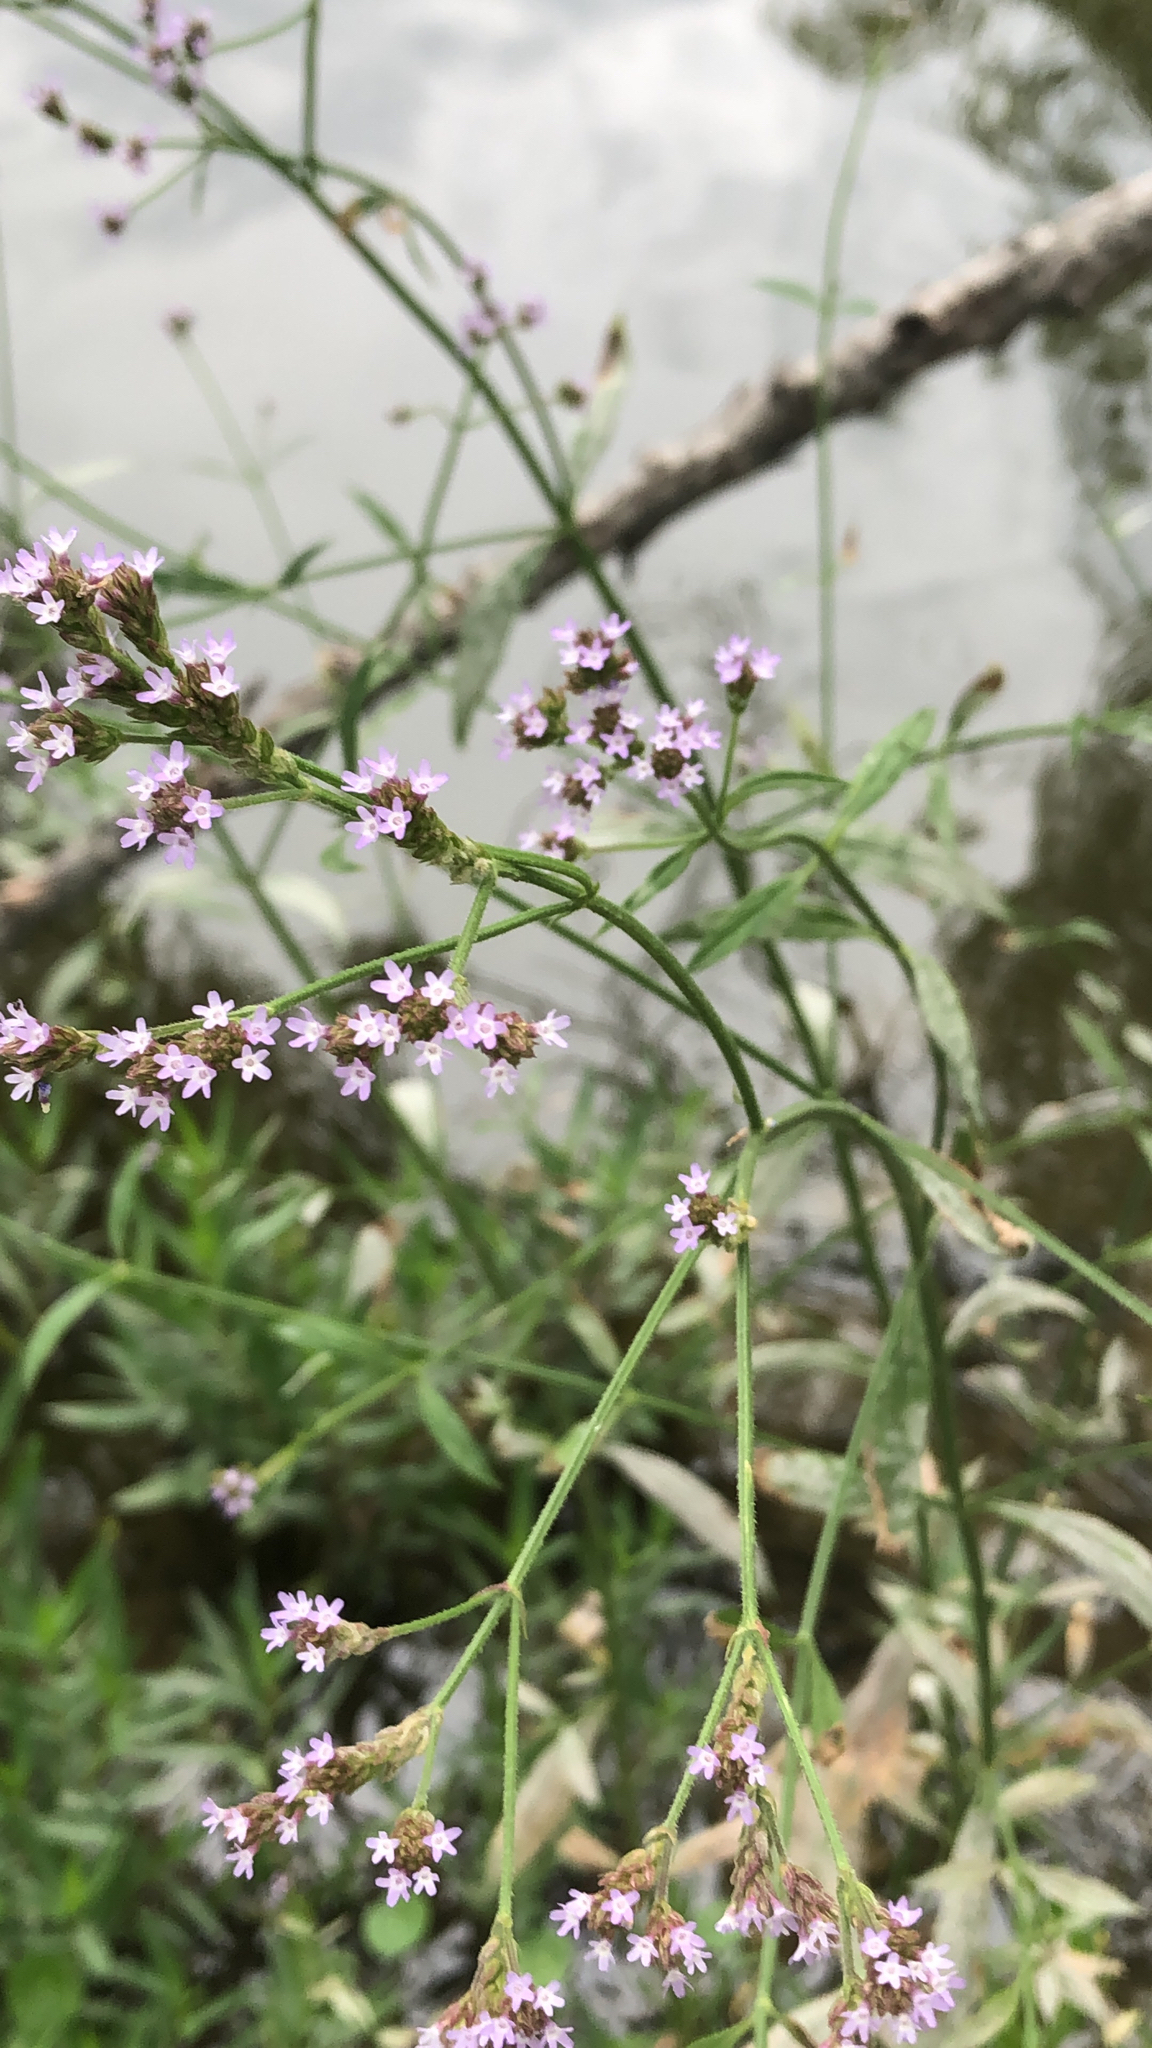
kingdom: Plantae
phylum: Tracheophyta
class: Magnoliopsida
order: Lamiales
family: Verbenaceae
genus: Verbena
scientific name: Verbena brasiliensis
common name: Brazilian vervain
